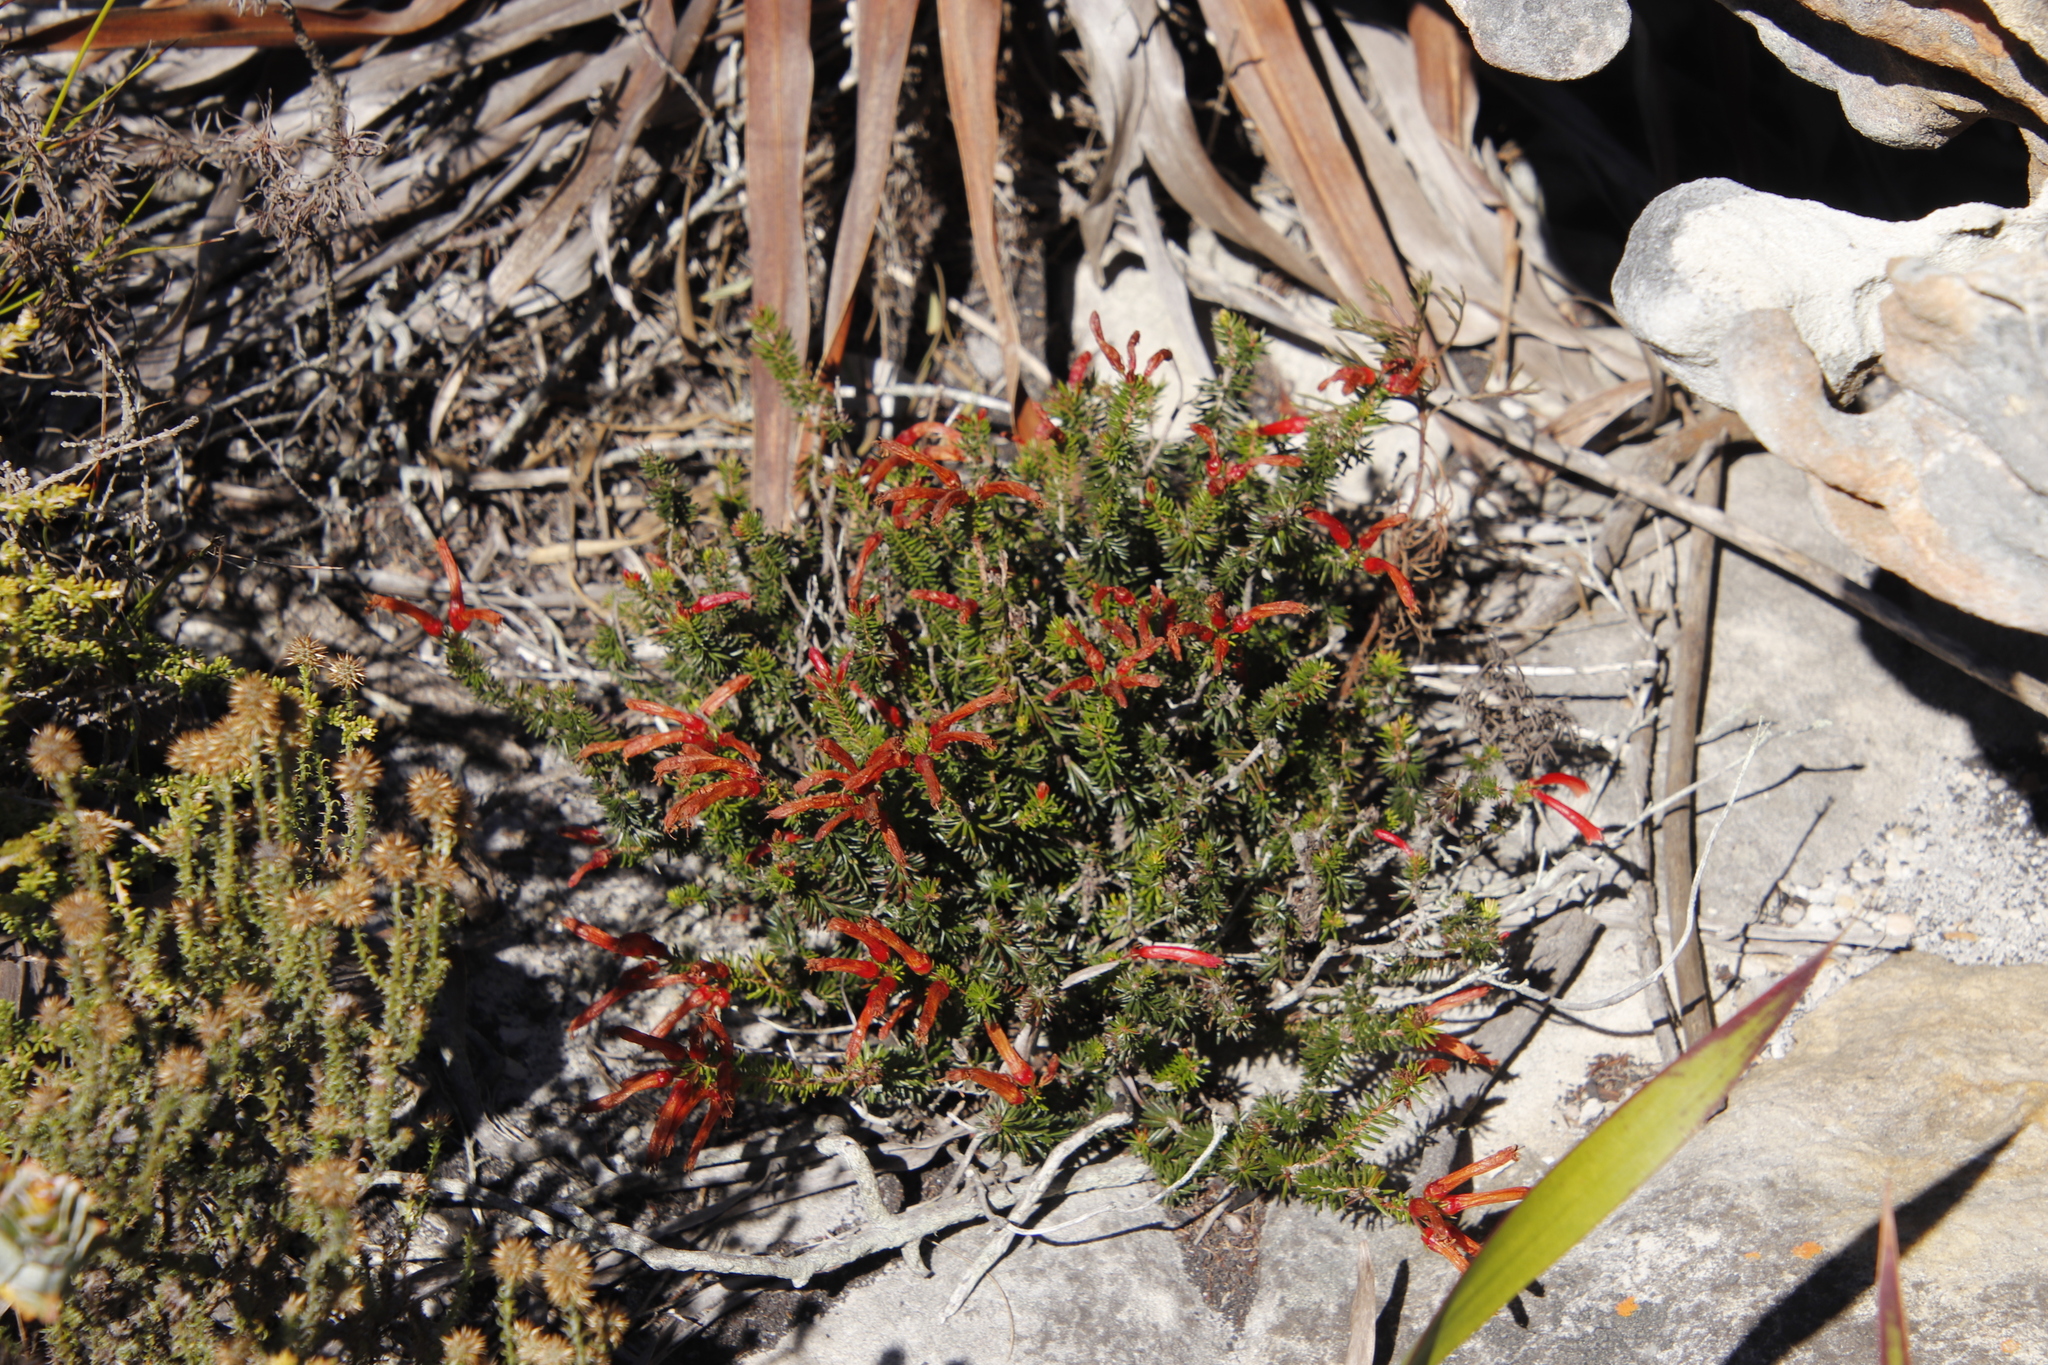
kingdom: Plantae
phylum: Tracheophyta
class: Magnoliopsida
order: Ericales
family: Ericaceae
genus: Erica
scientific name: Erica nevillei
